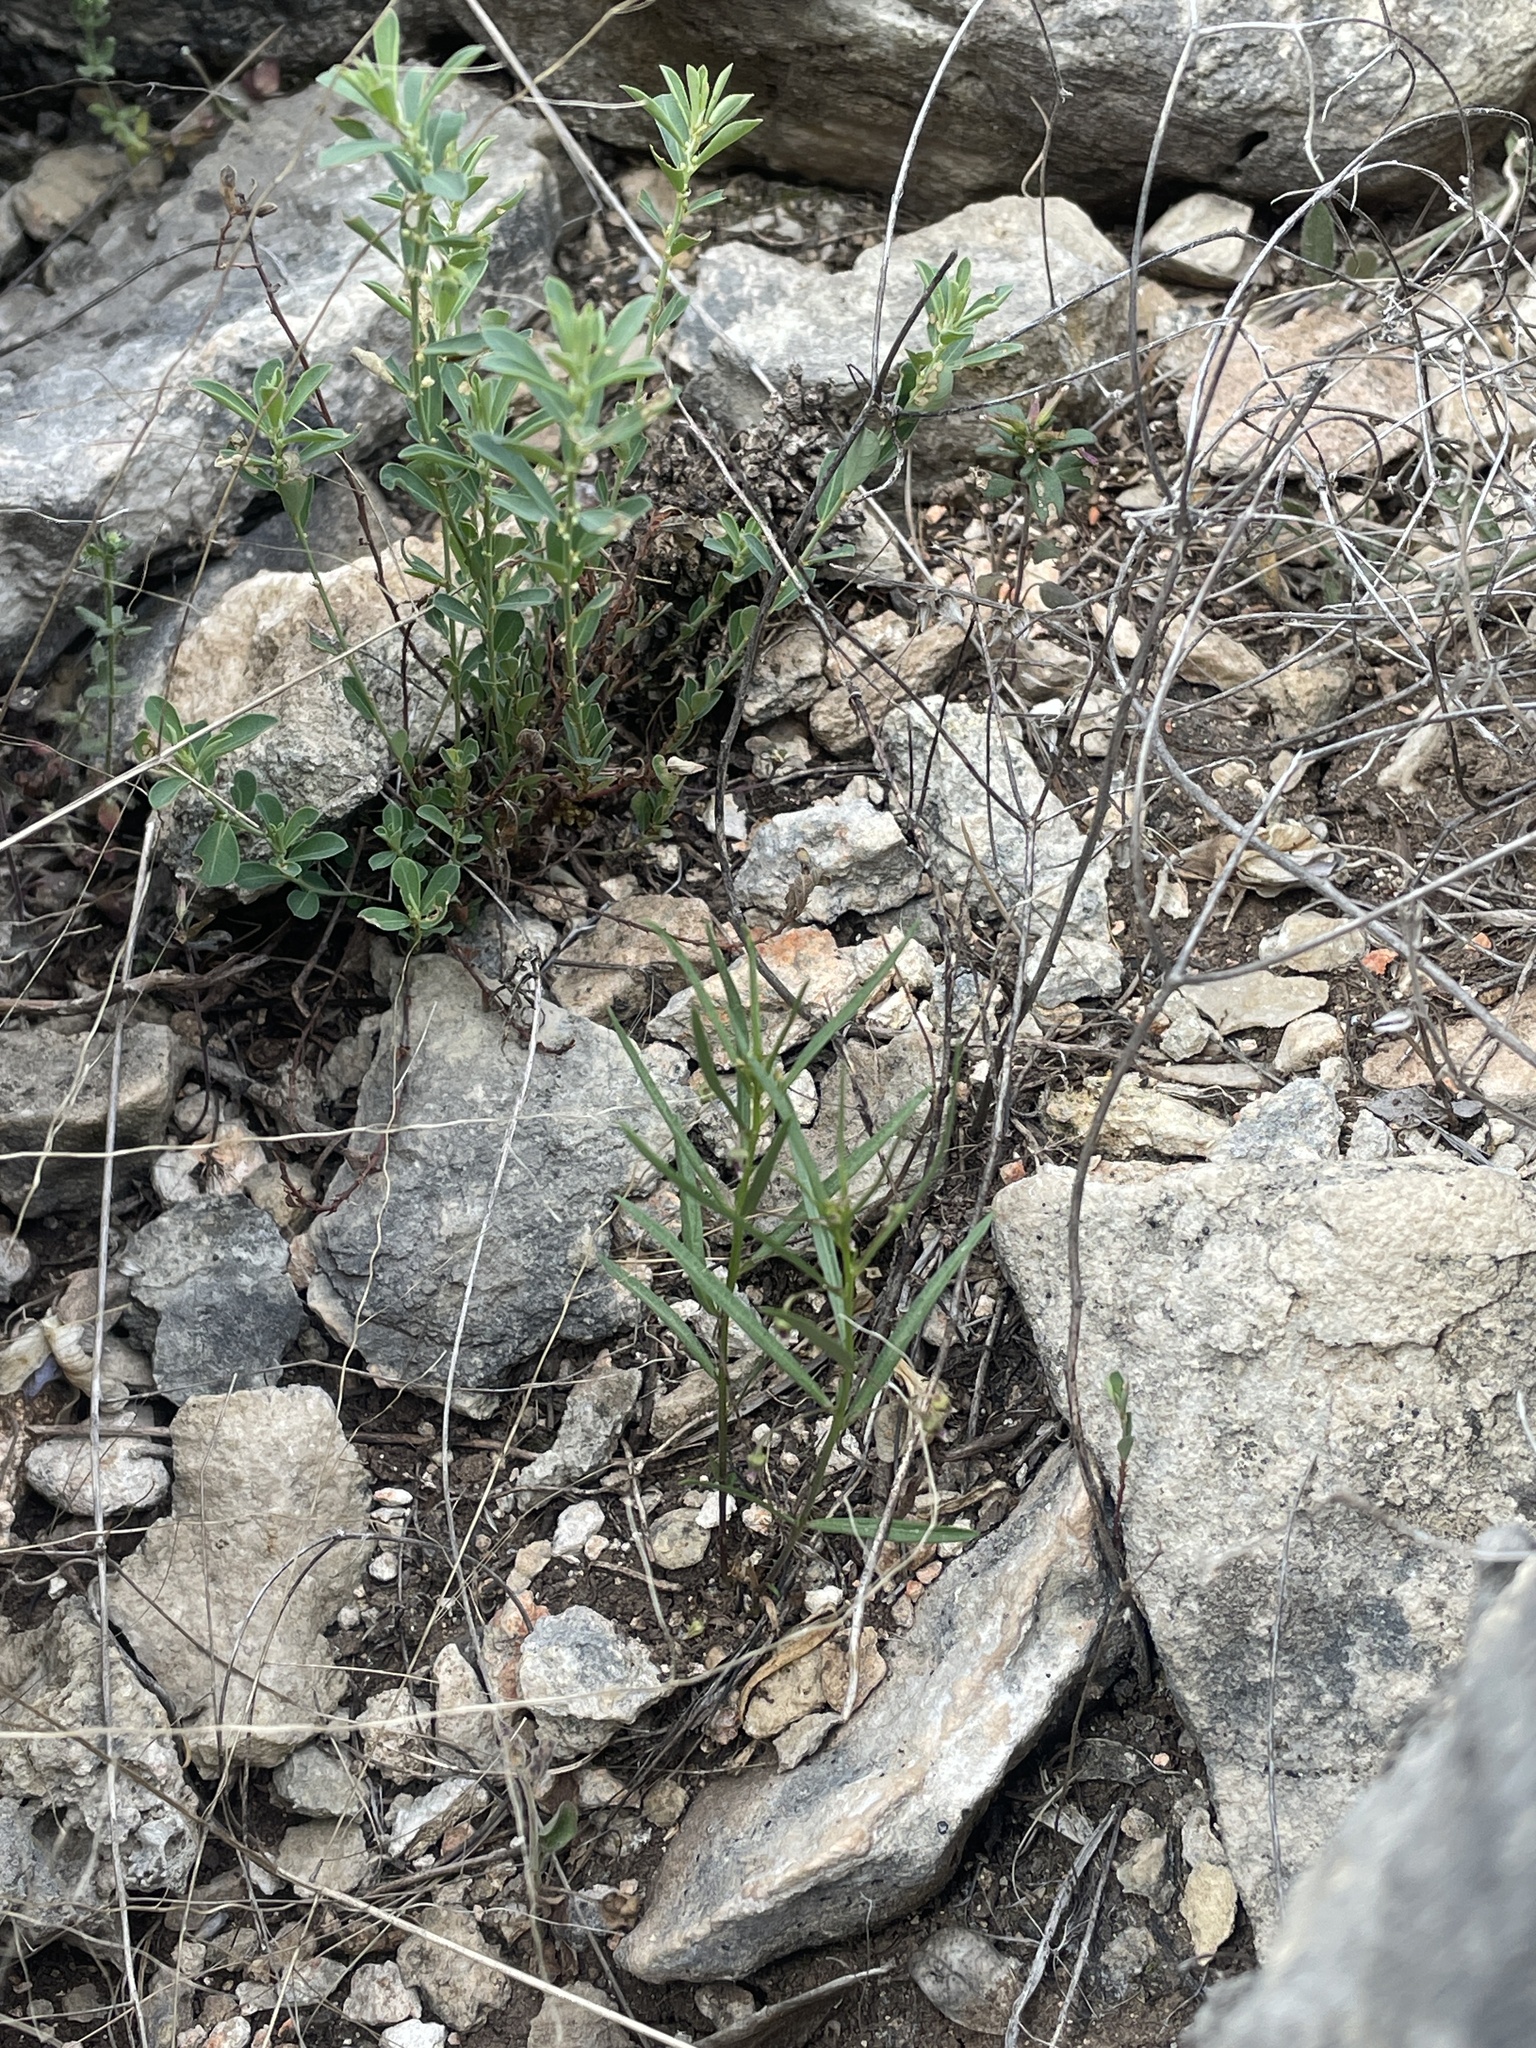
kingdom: Plantae
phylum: Tracheophyta
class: Magnoliopsida
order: Malpighiales
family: Violaceae
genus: Pombalia
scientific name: Pombalia verticillata
